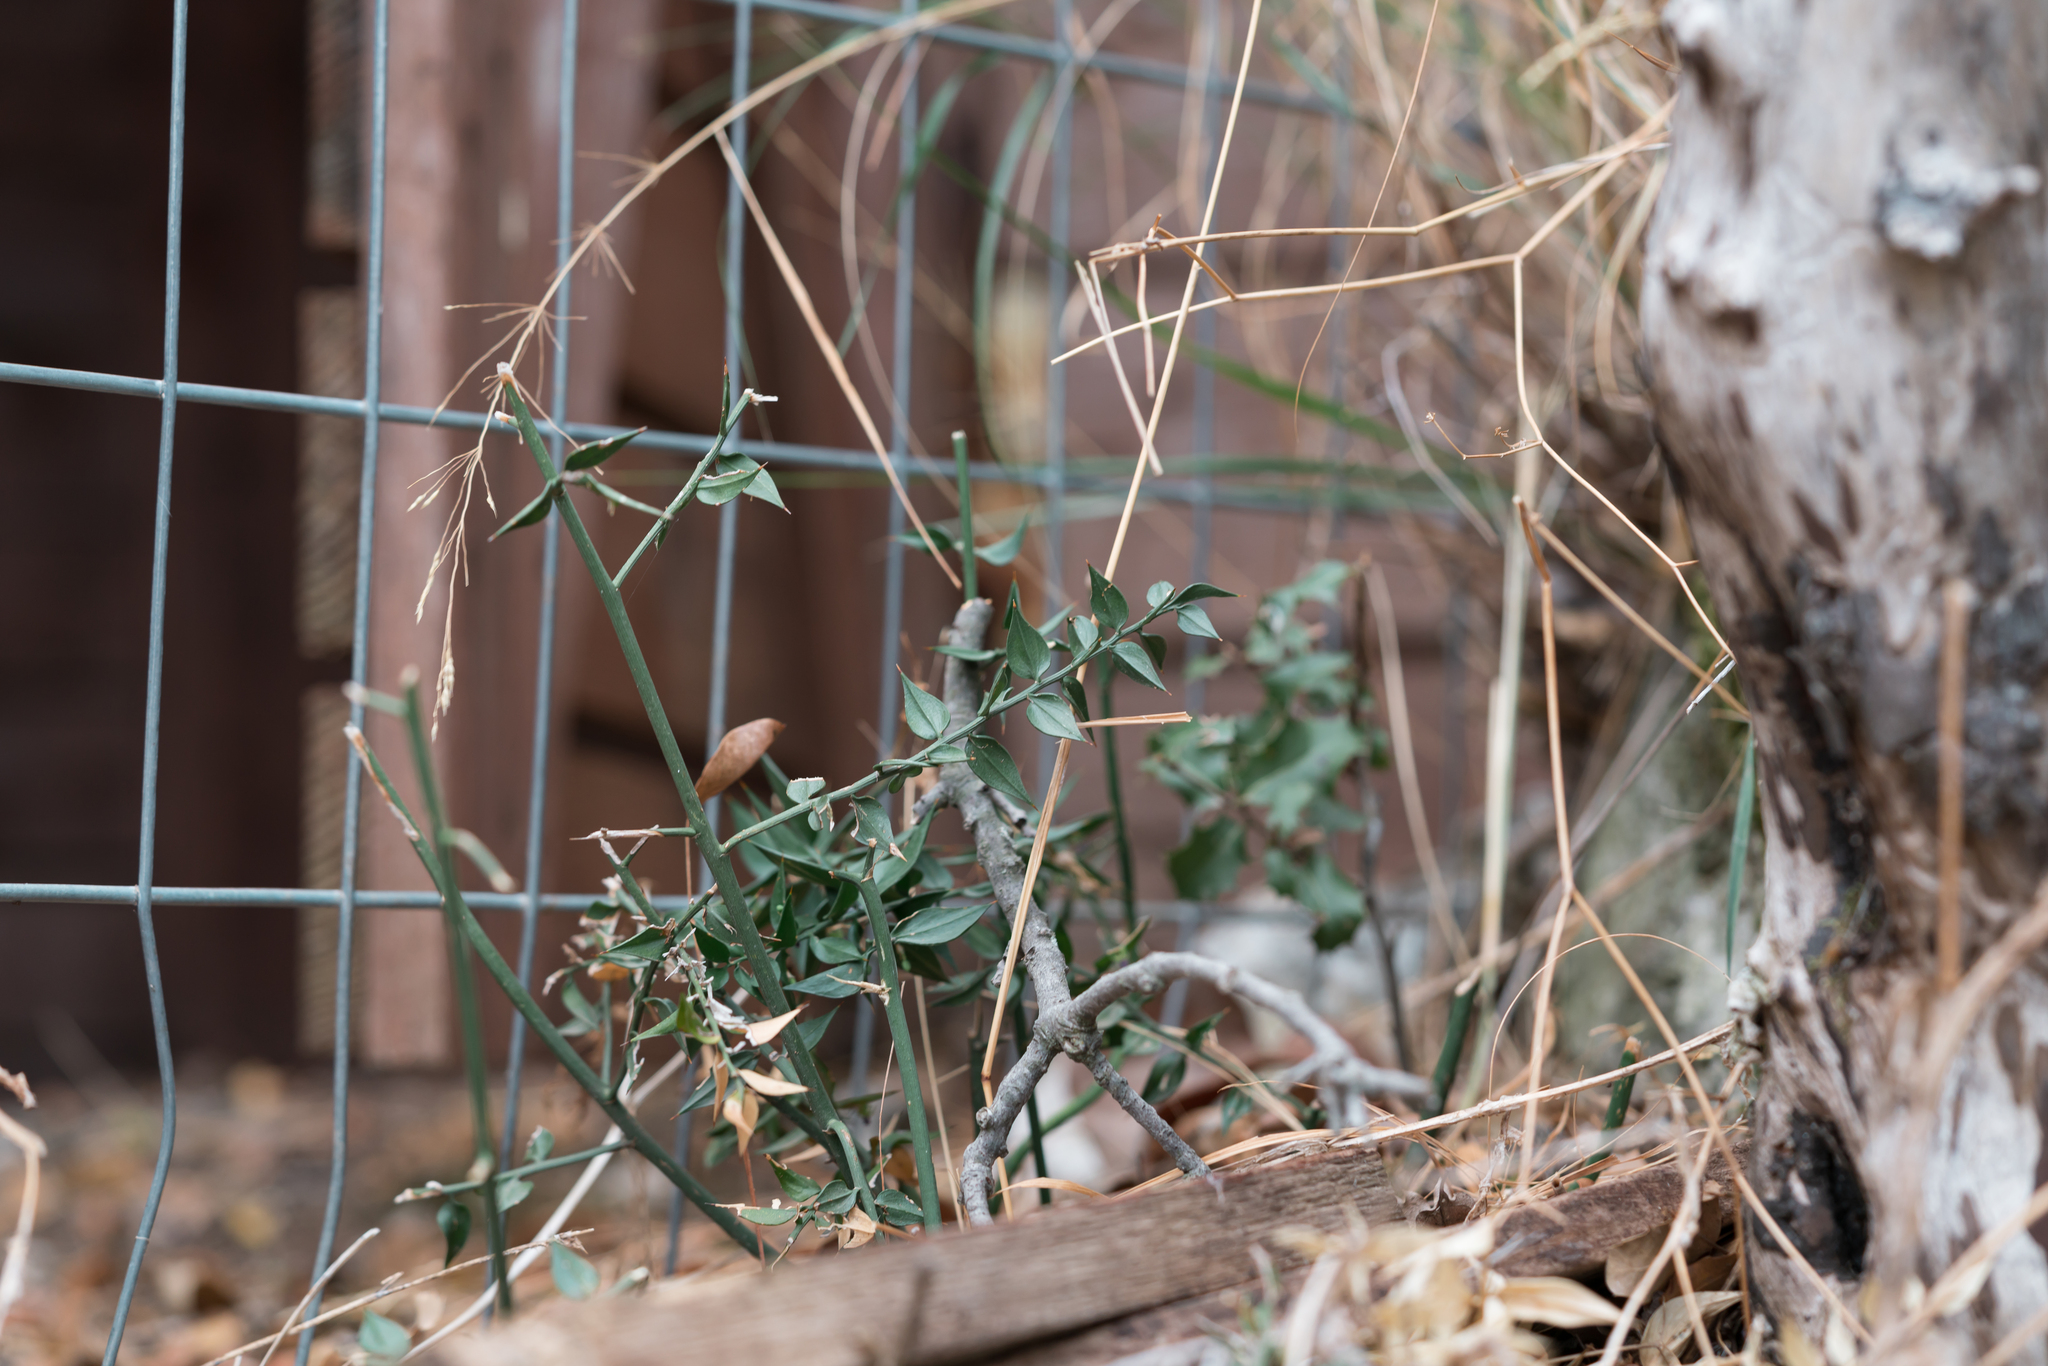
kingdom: Plantae
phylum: Tracheophyta
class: Liliopsida
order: Asparagales
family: Asparagaceae
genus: Ruscus
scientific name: Ruscus aculeatus
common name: Butcher's-broom
